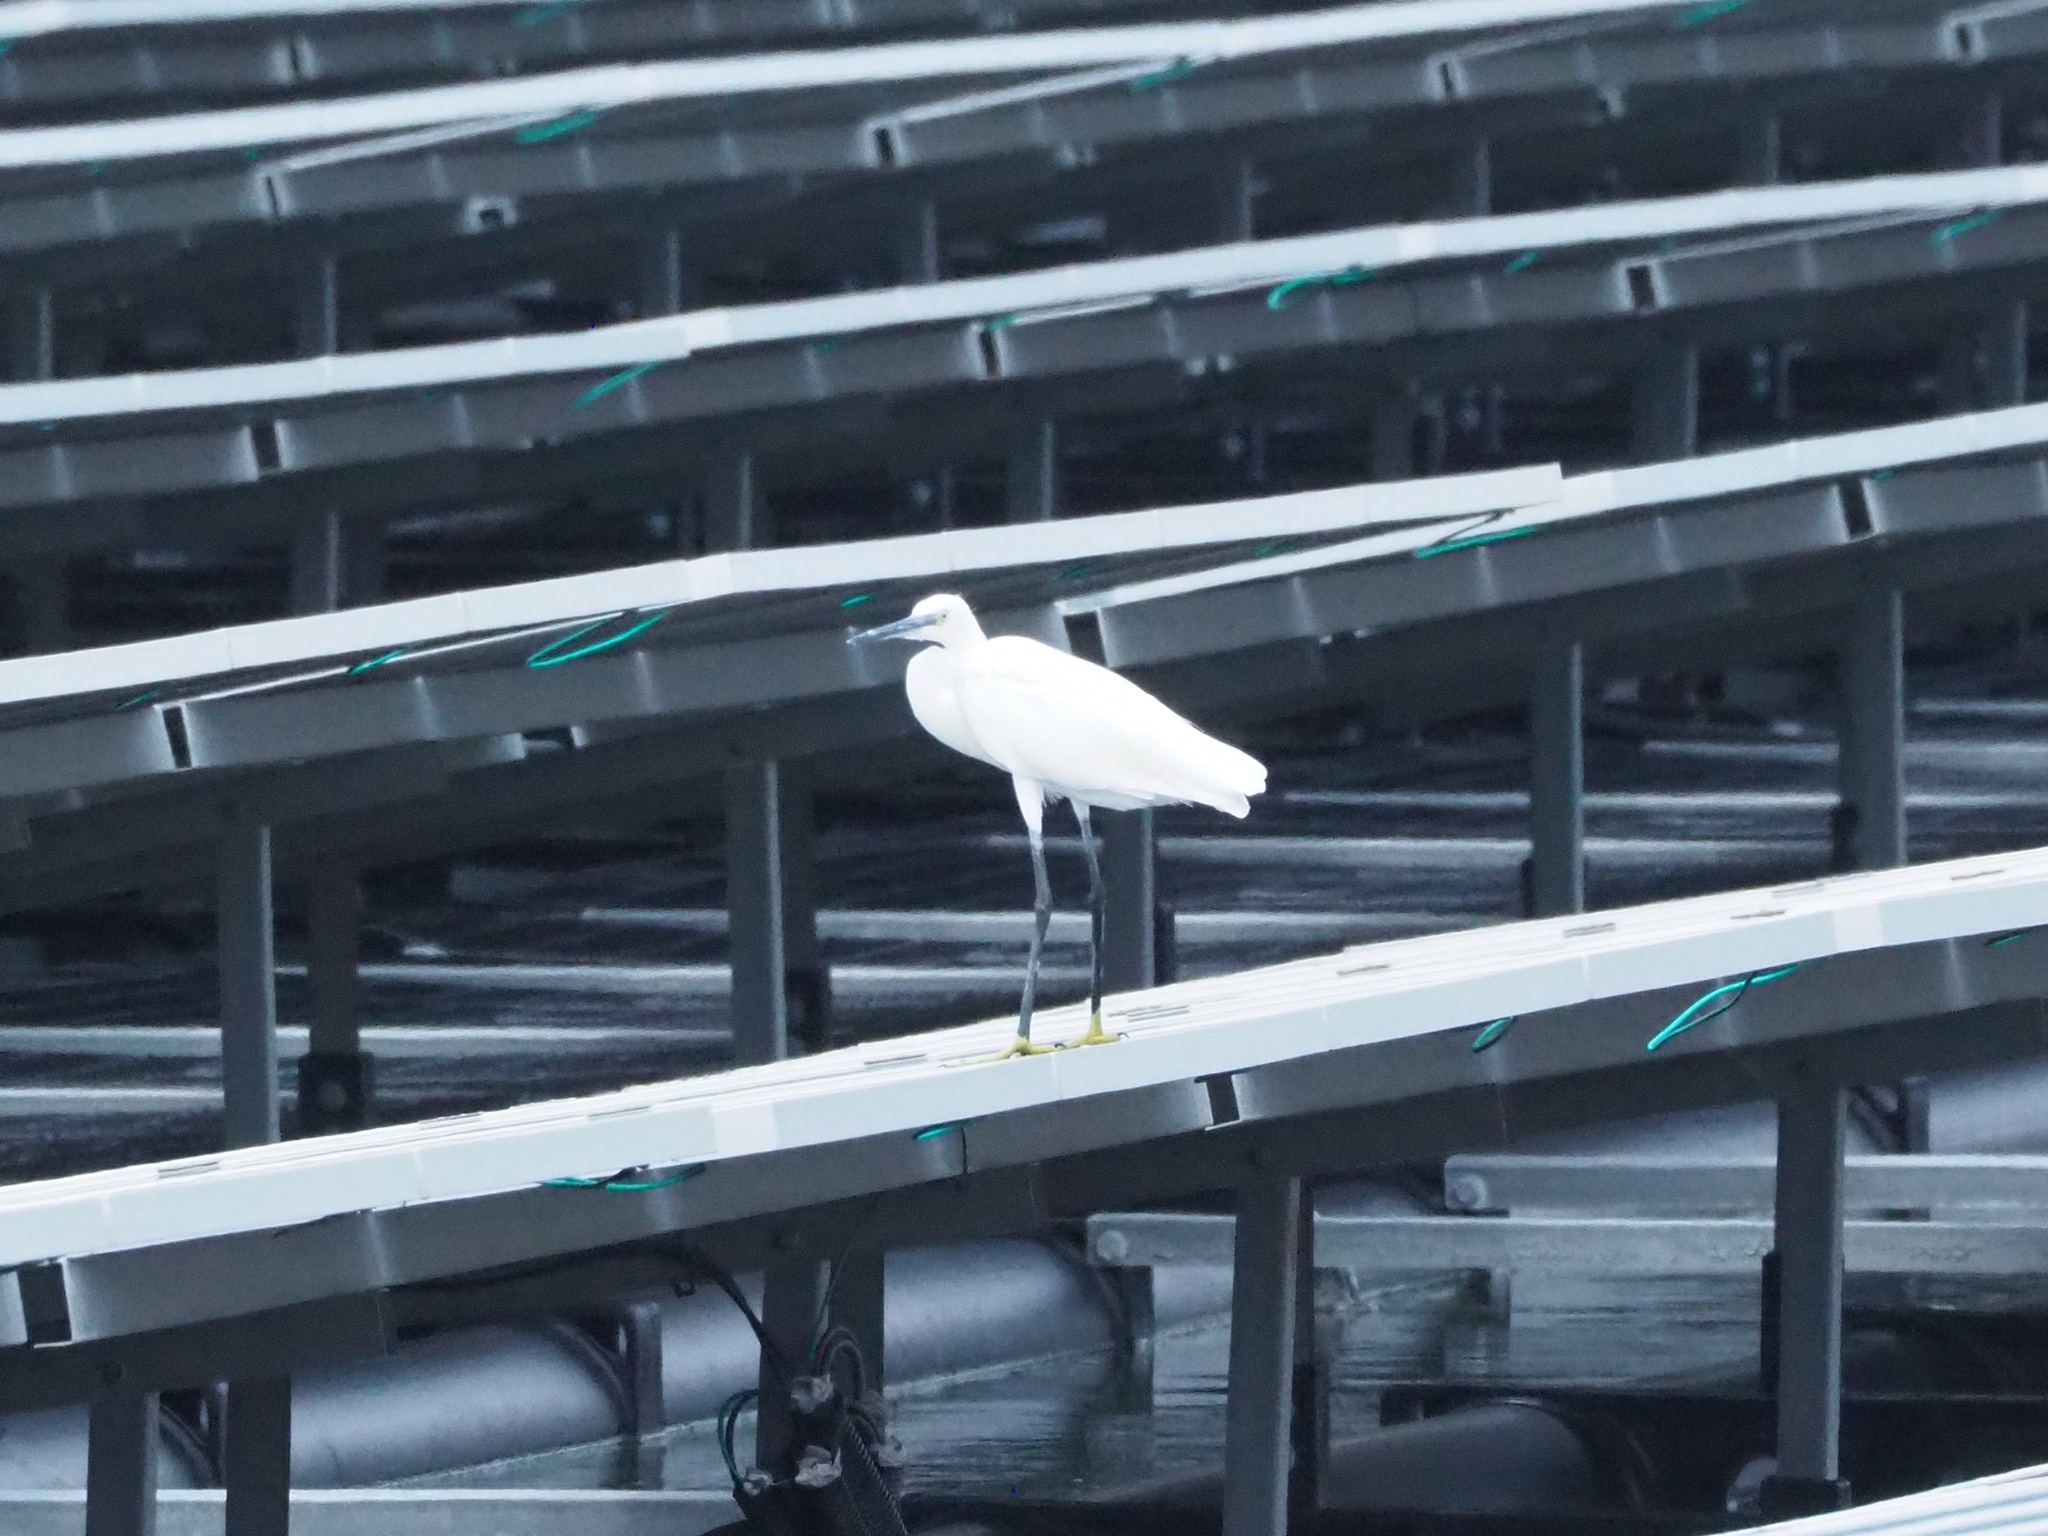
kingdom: Animalia
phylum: Chordata
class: Aves
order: Pelecaniformes
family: Ardeidae
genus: Egretta
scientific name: Egretta garzetta
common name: Little egret
